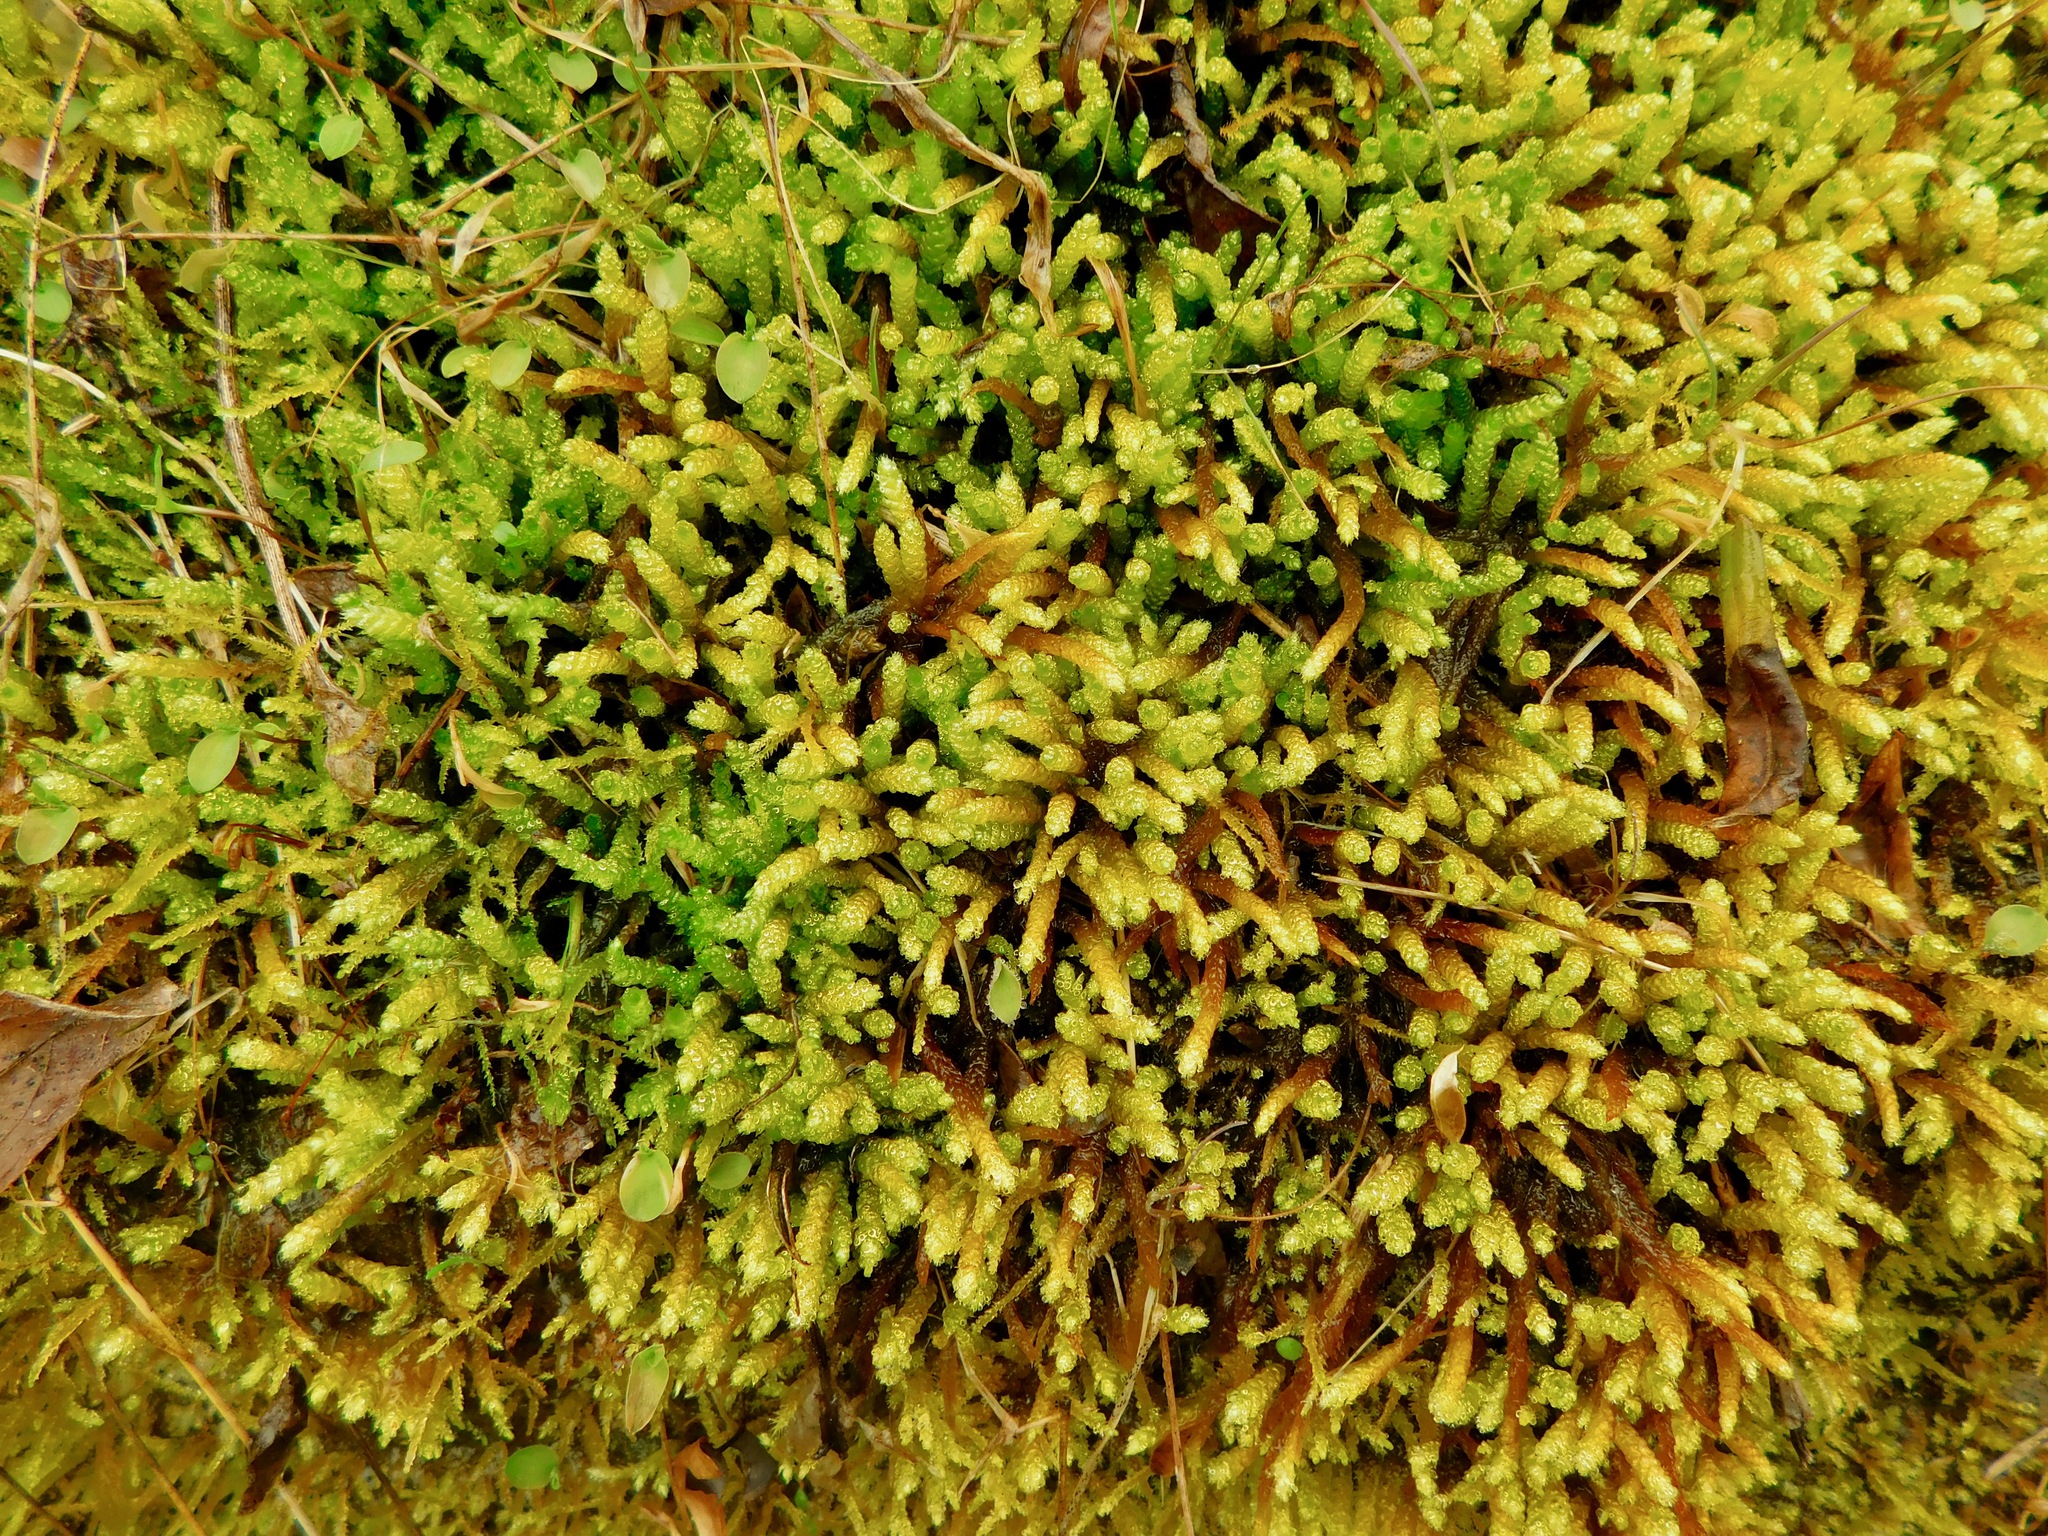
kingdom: Plantae
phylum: Bryophyta
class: Bryopsida
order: Hypnales
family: Brachytheciaceae
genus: Bryoandersonia
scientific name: Bryoandersonia illecebra
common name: Spoon-leaved moss
